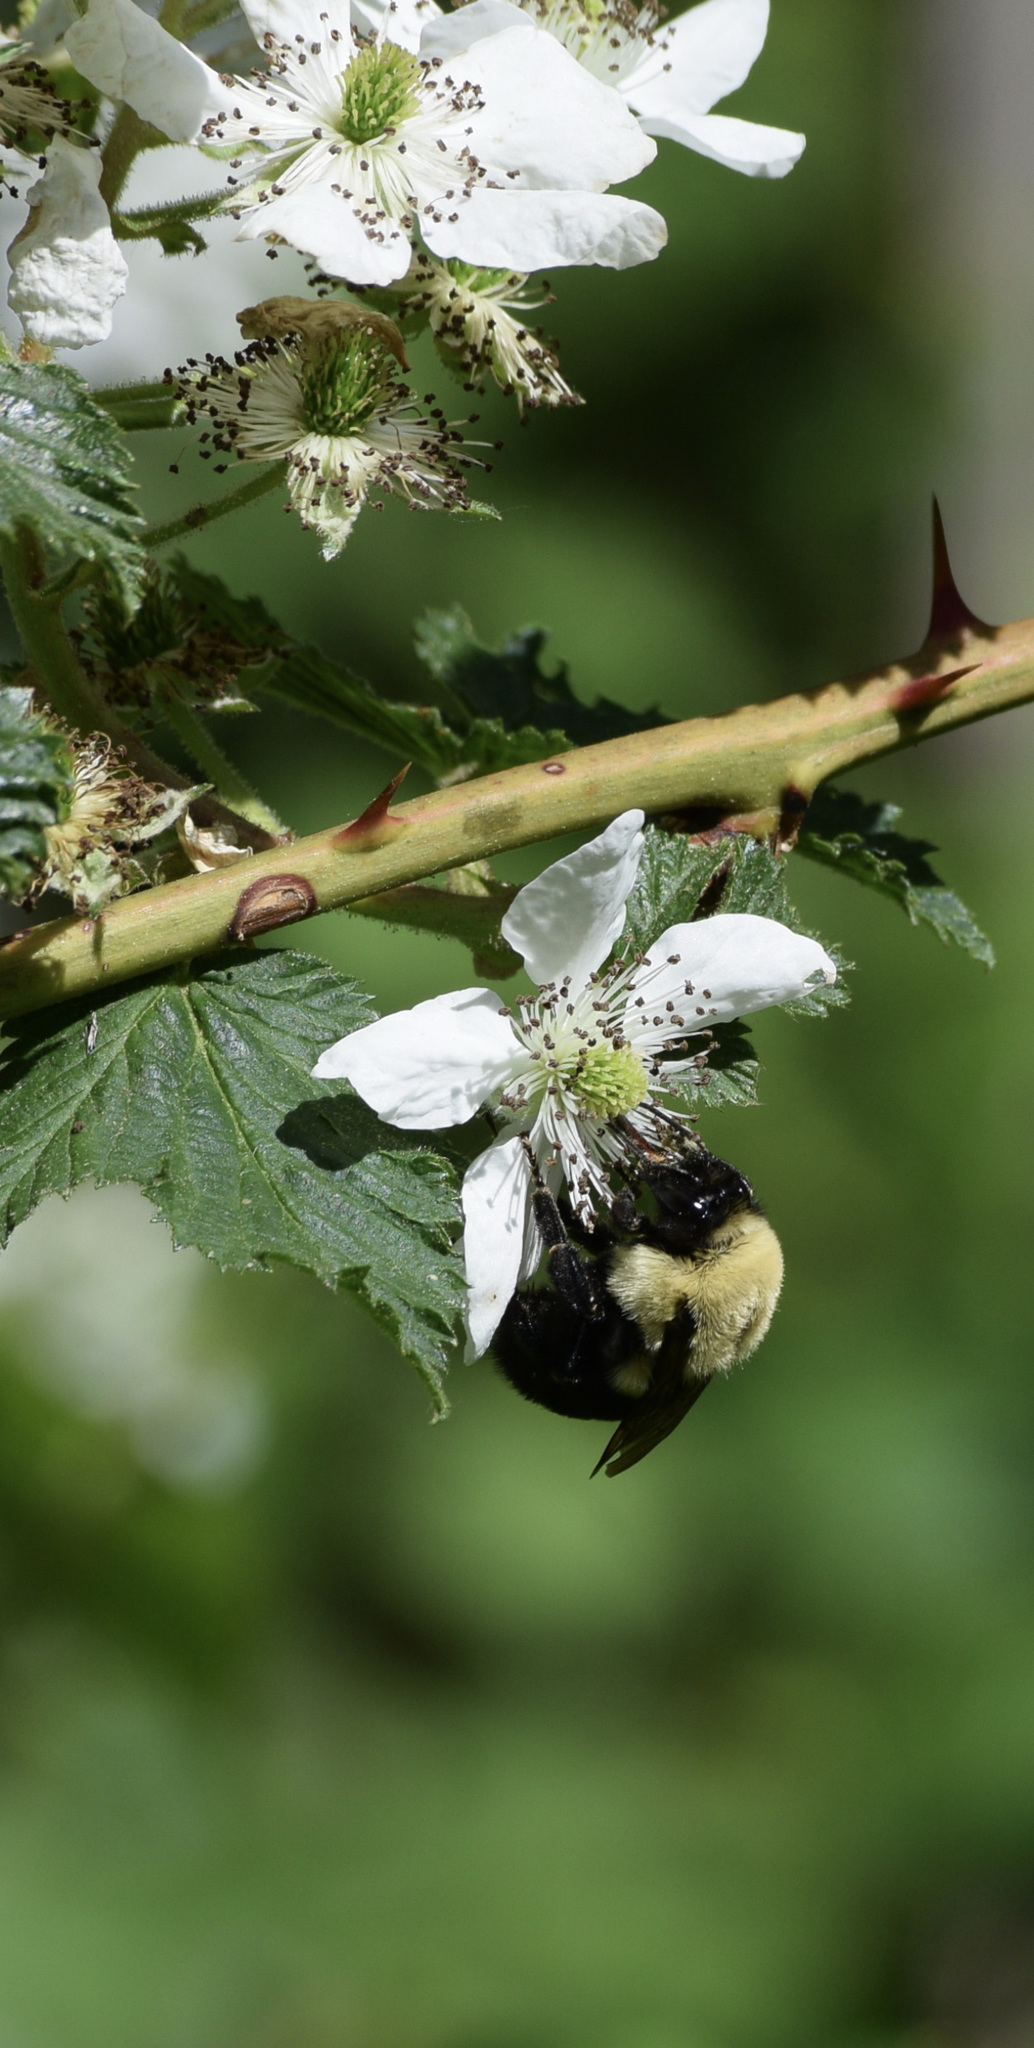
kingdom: Animalia
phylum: Arthropoda
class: Insecta
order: Hymenoptera
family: Apidae
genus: Bombus
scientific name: Bombus impatiens
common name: Common eastern bumble bee
